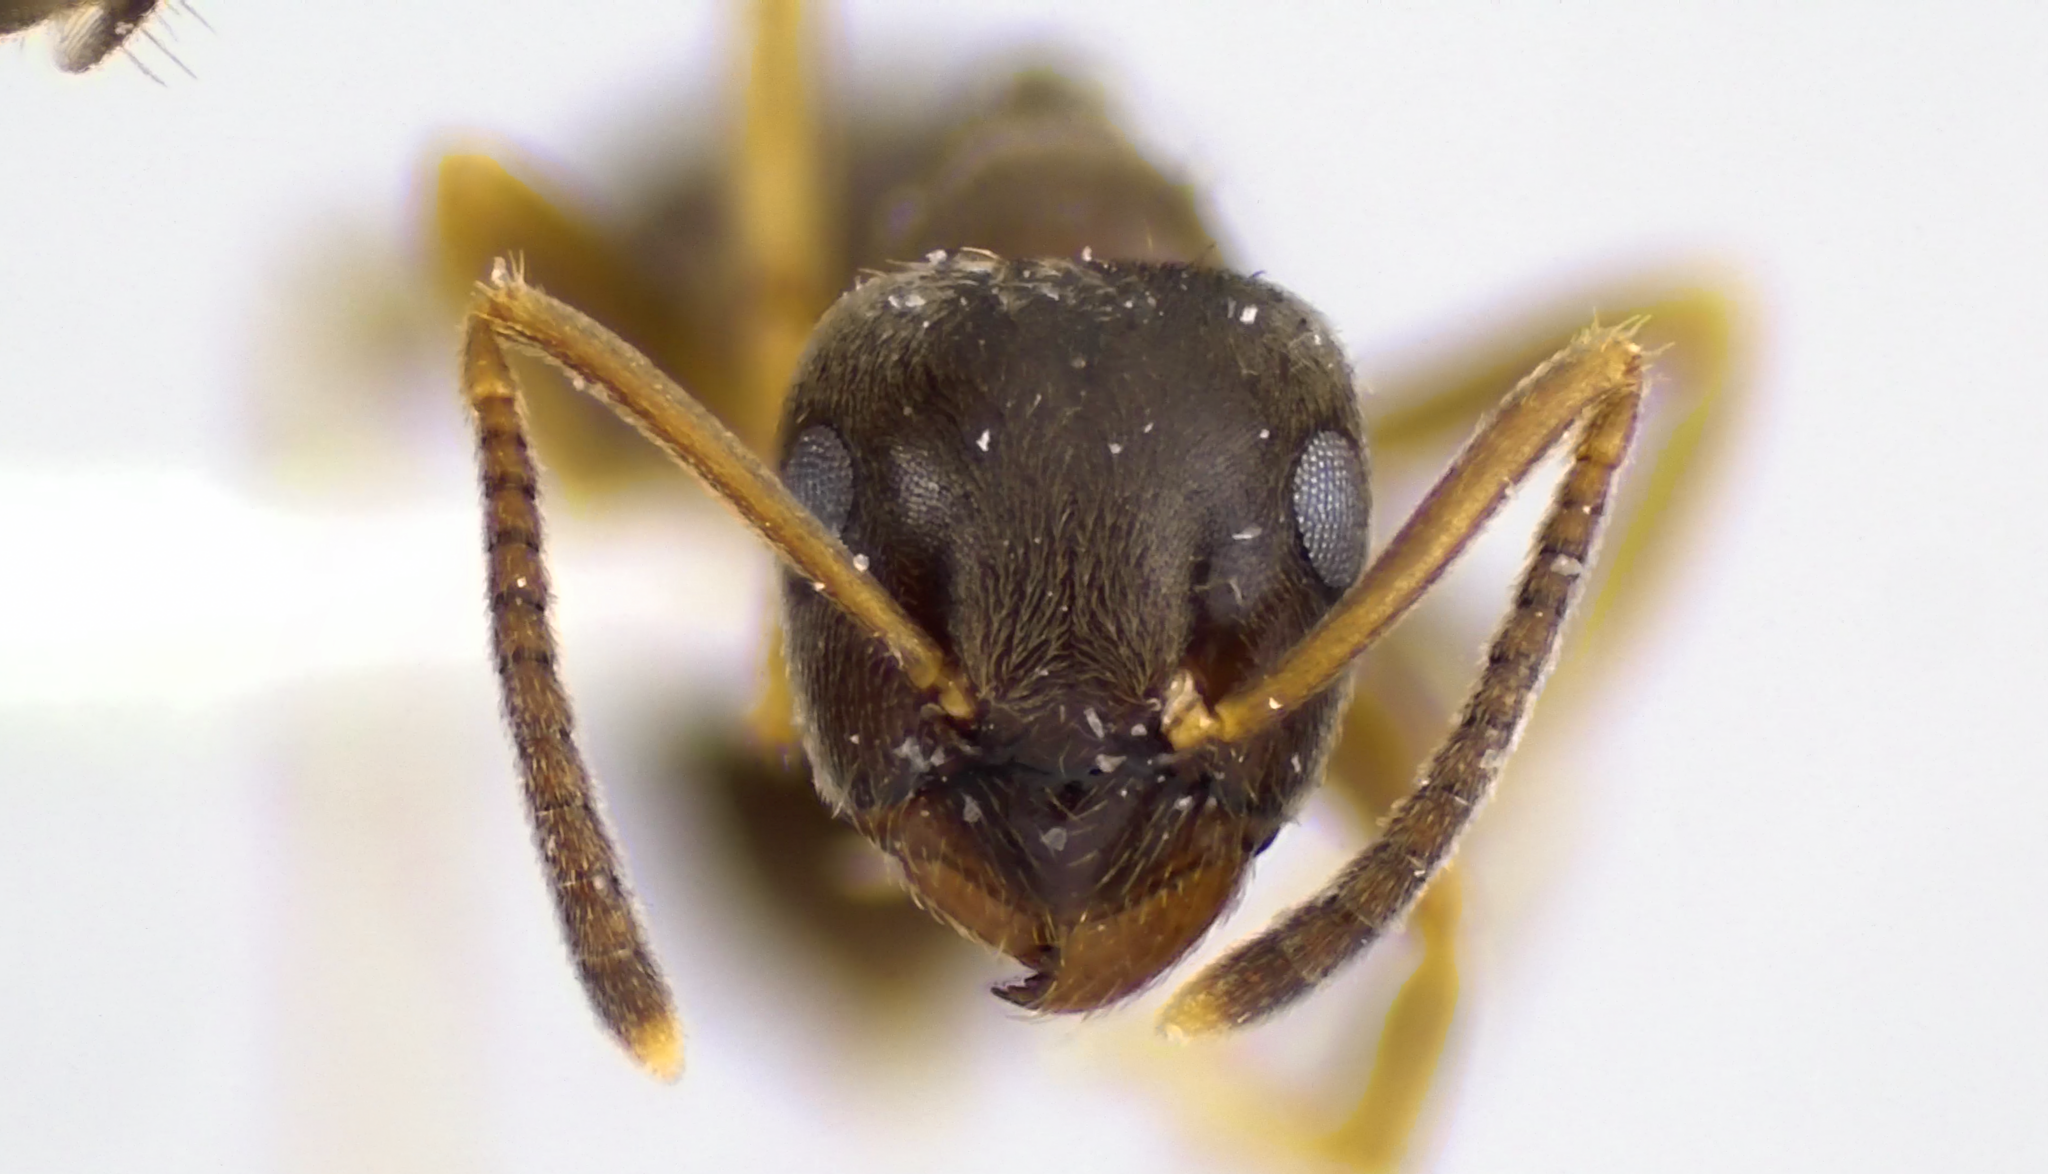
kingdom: Animalia
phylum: Arthropoda
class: Insecta
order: Hymenoptera
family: Formicidae
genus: Lasius
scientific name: Lasius americanus
